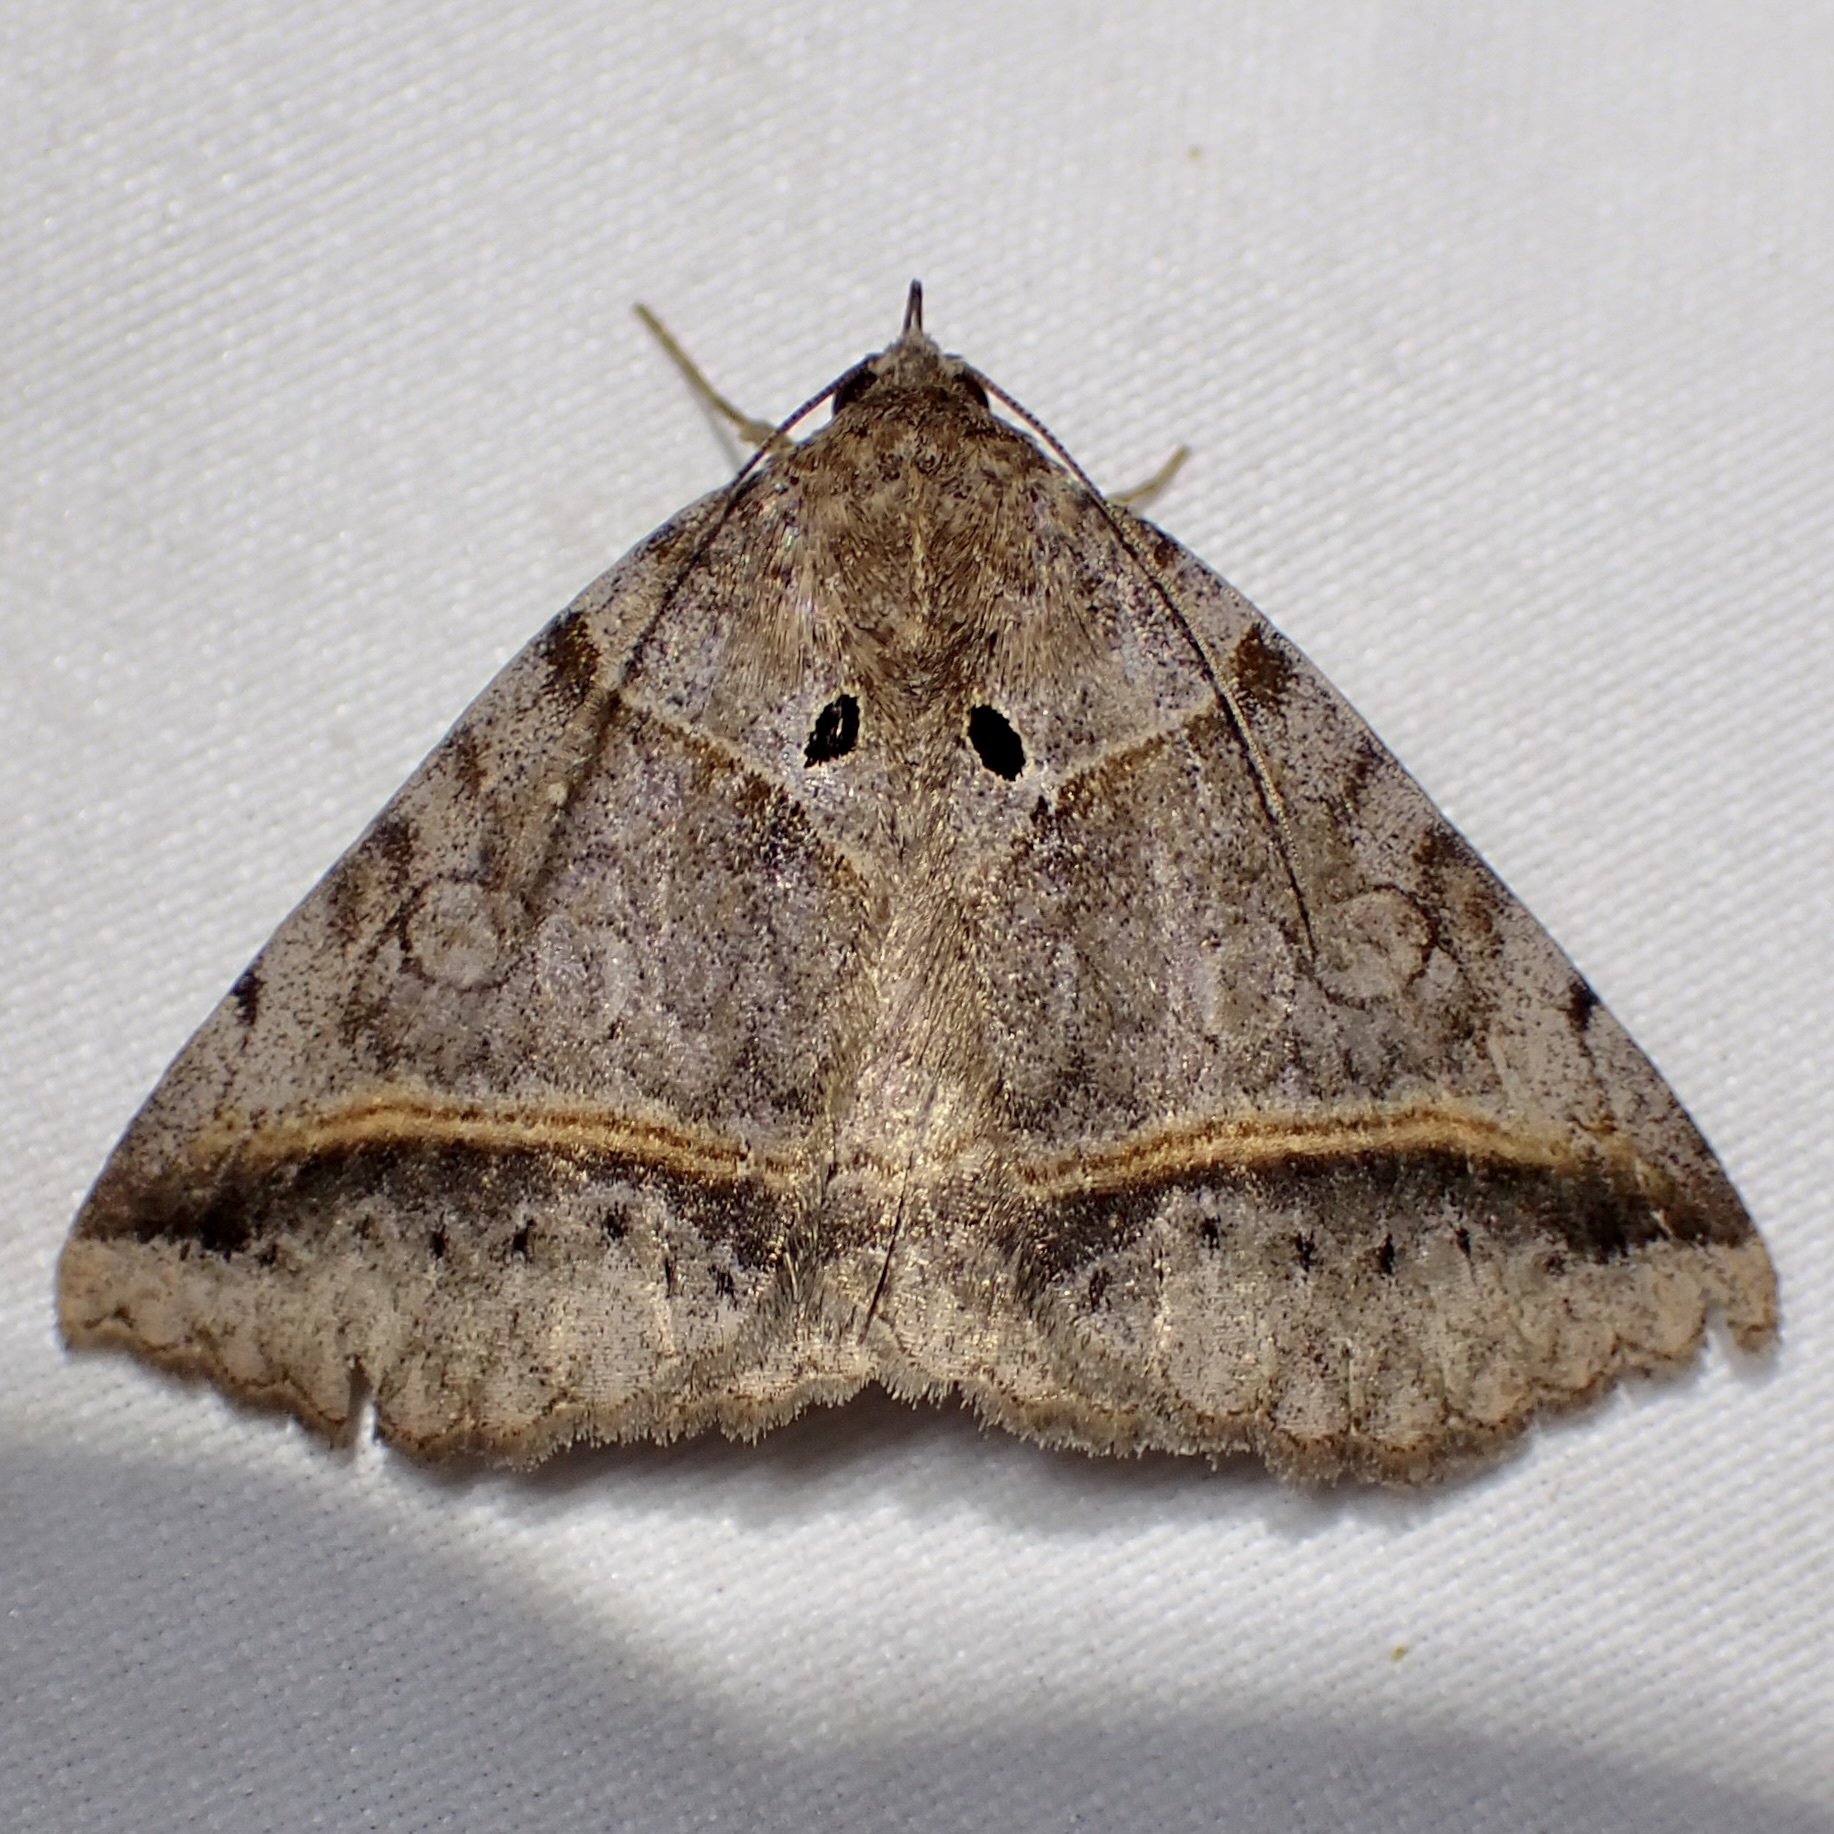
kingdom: Animalia
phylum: Arthropoda
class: Insecta
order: Lepidoptera
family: Erebidae
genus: Celiptera
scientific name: Celiptera valina
